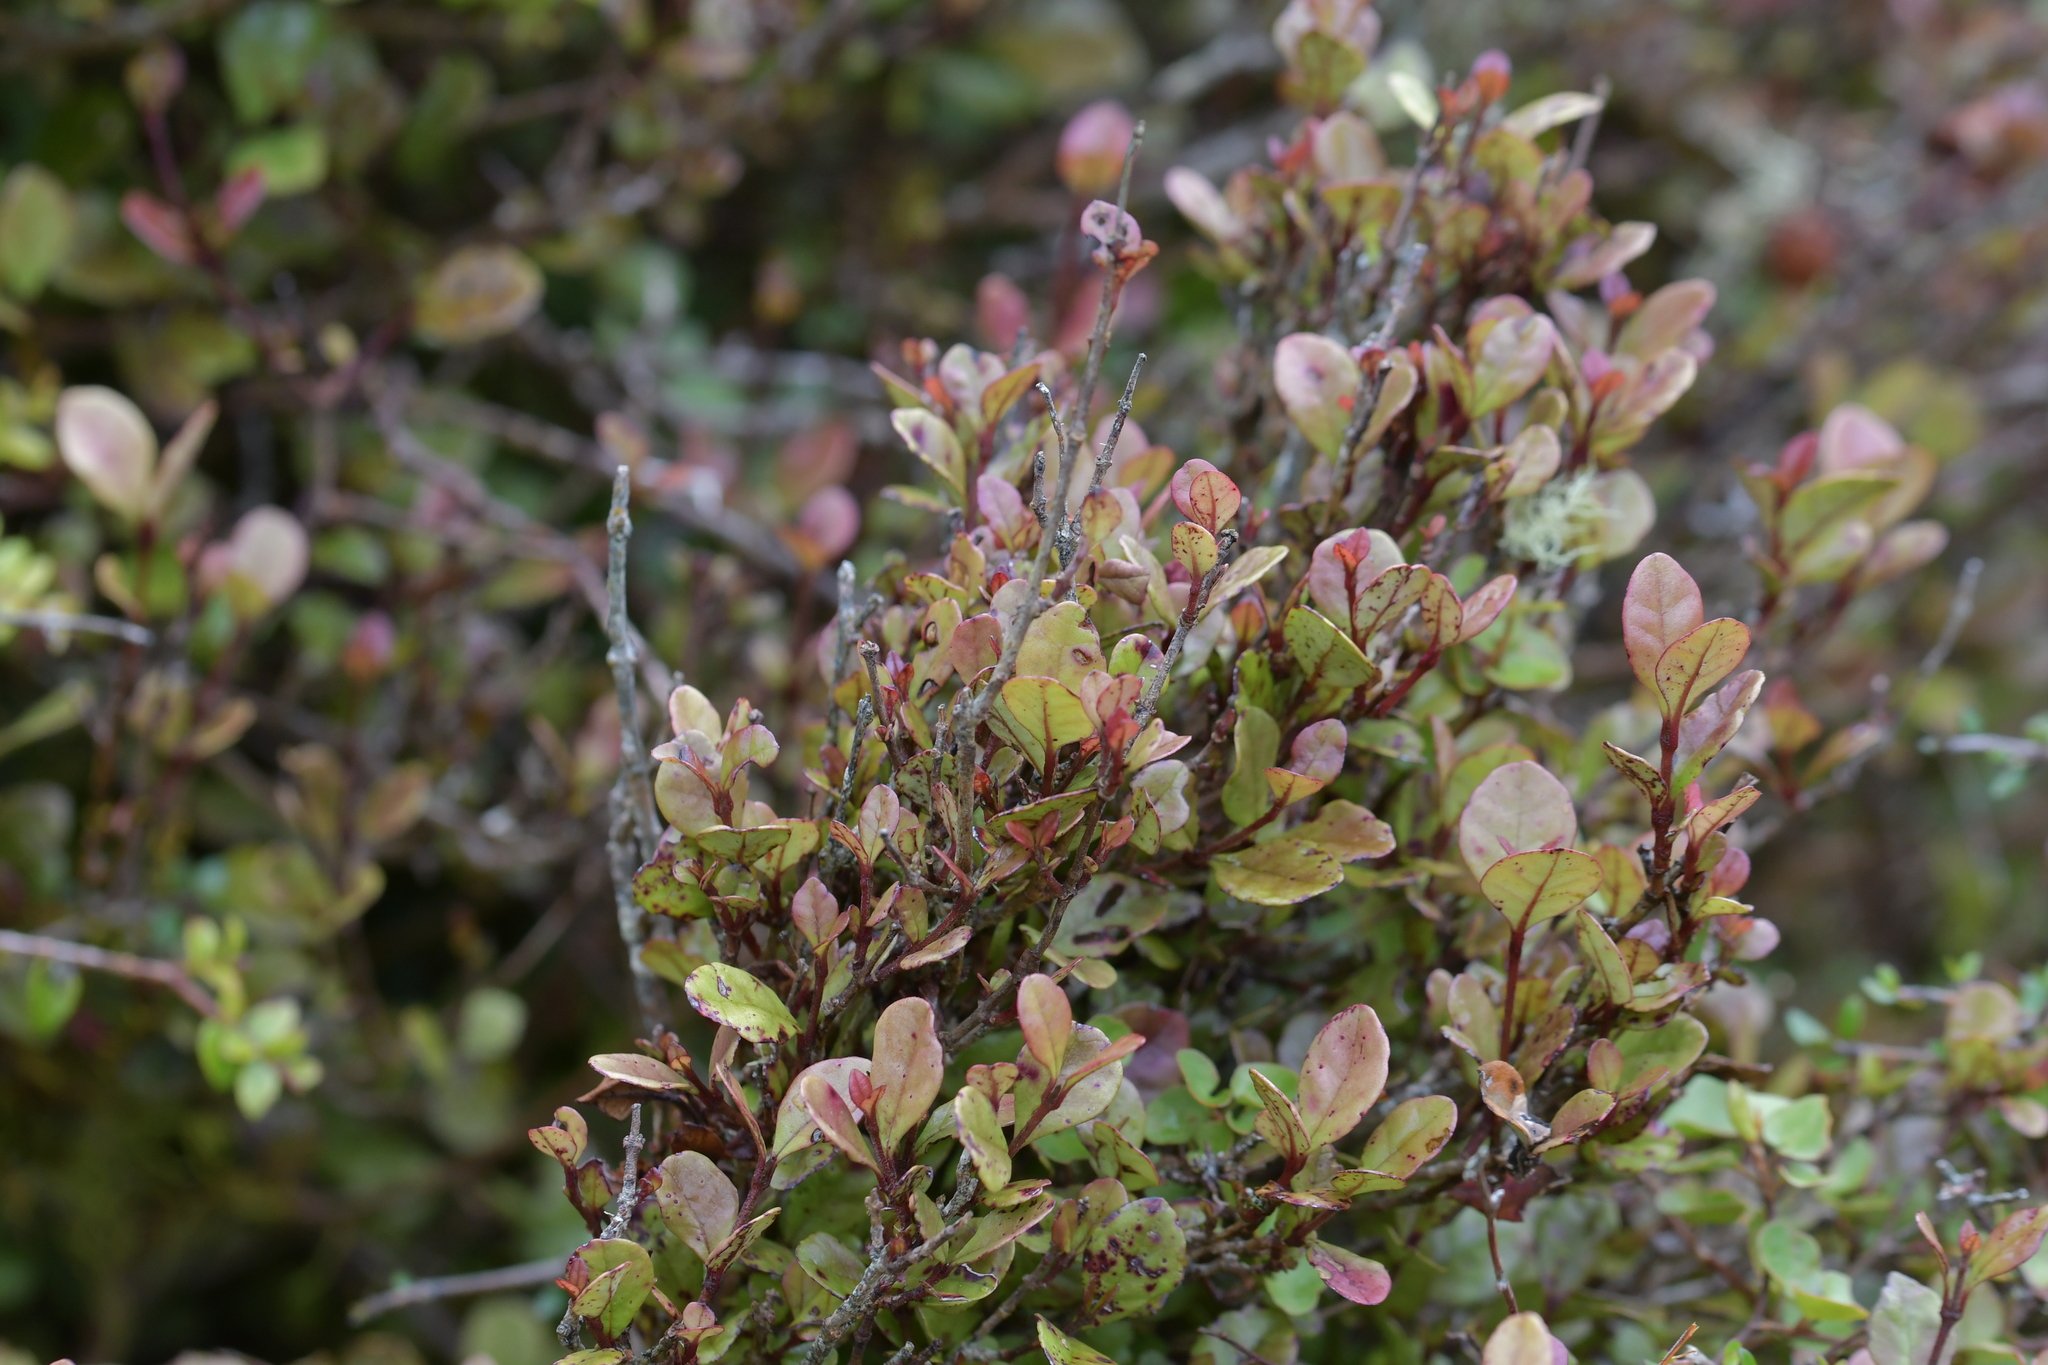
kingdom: Plantae
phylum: Tracheophyta
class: Magnoliopsida
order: Myrtales
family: Myrtaceae
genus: Lophomyrtus
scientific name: Lophomyrtus ralphii
